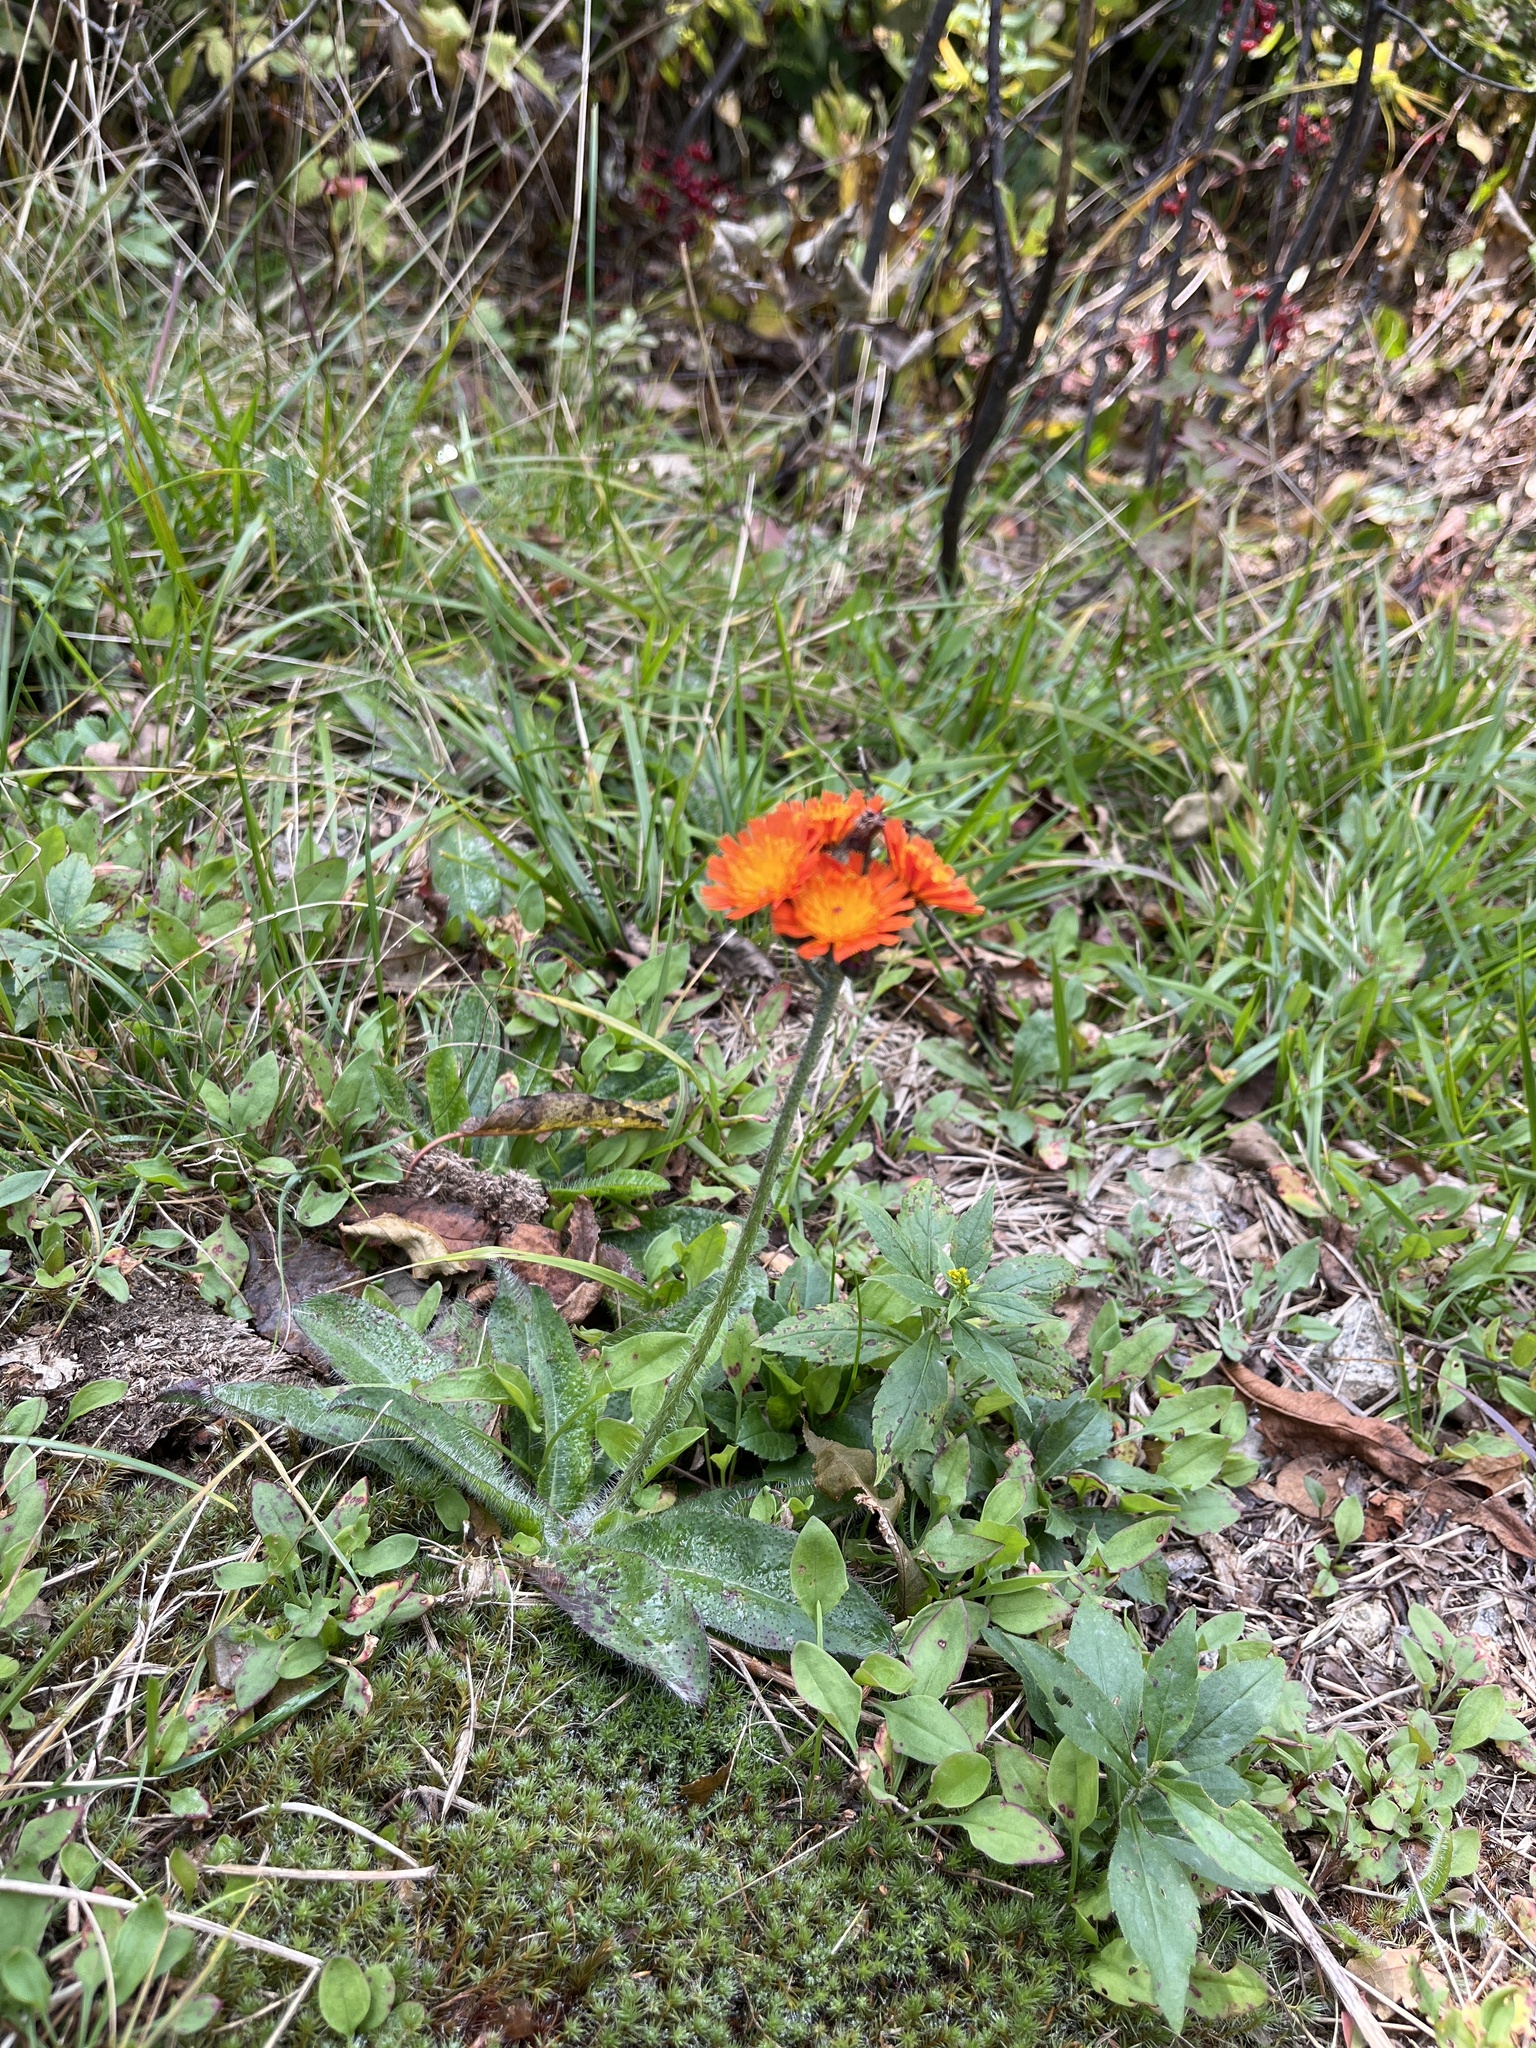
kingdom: Plantae
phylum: Tracheophyta
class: Magnoliopsida
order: Asterales
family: Asteraceae
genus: Pilosella
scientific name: Pilosella aurantiaca
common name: Fox-and-cubs
